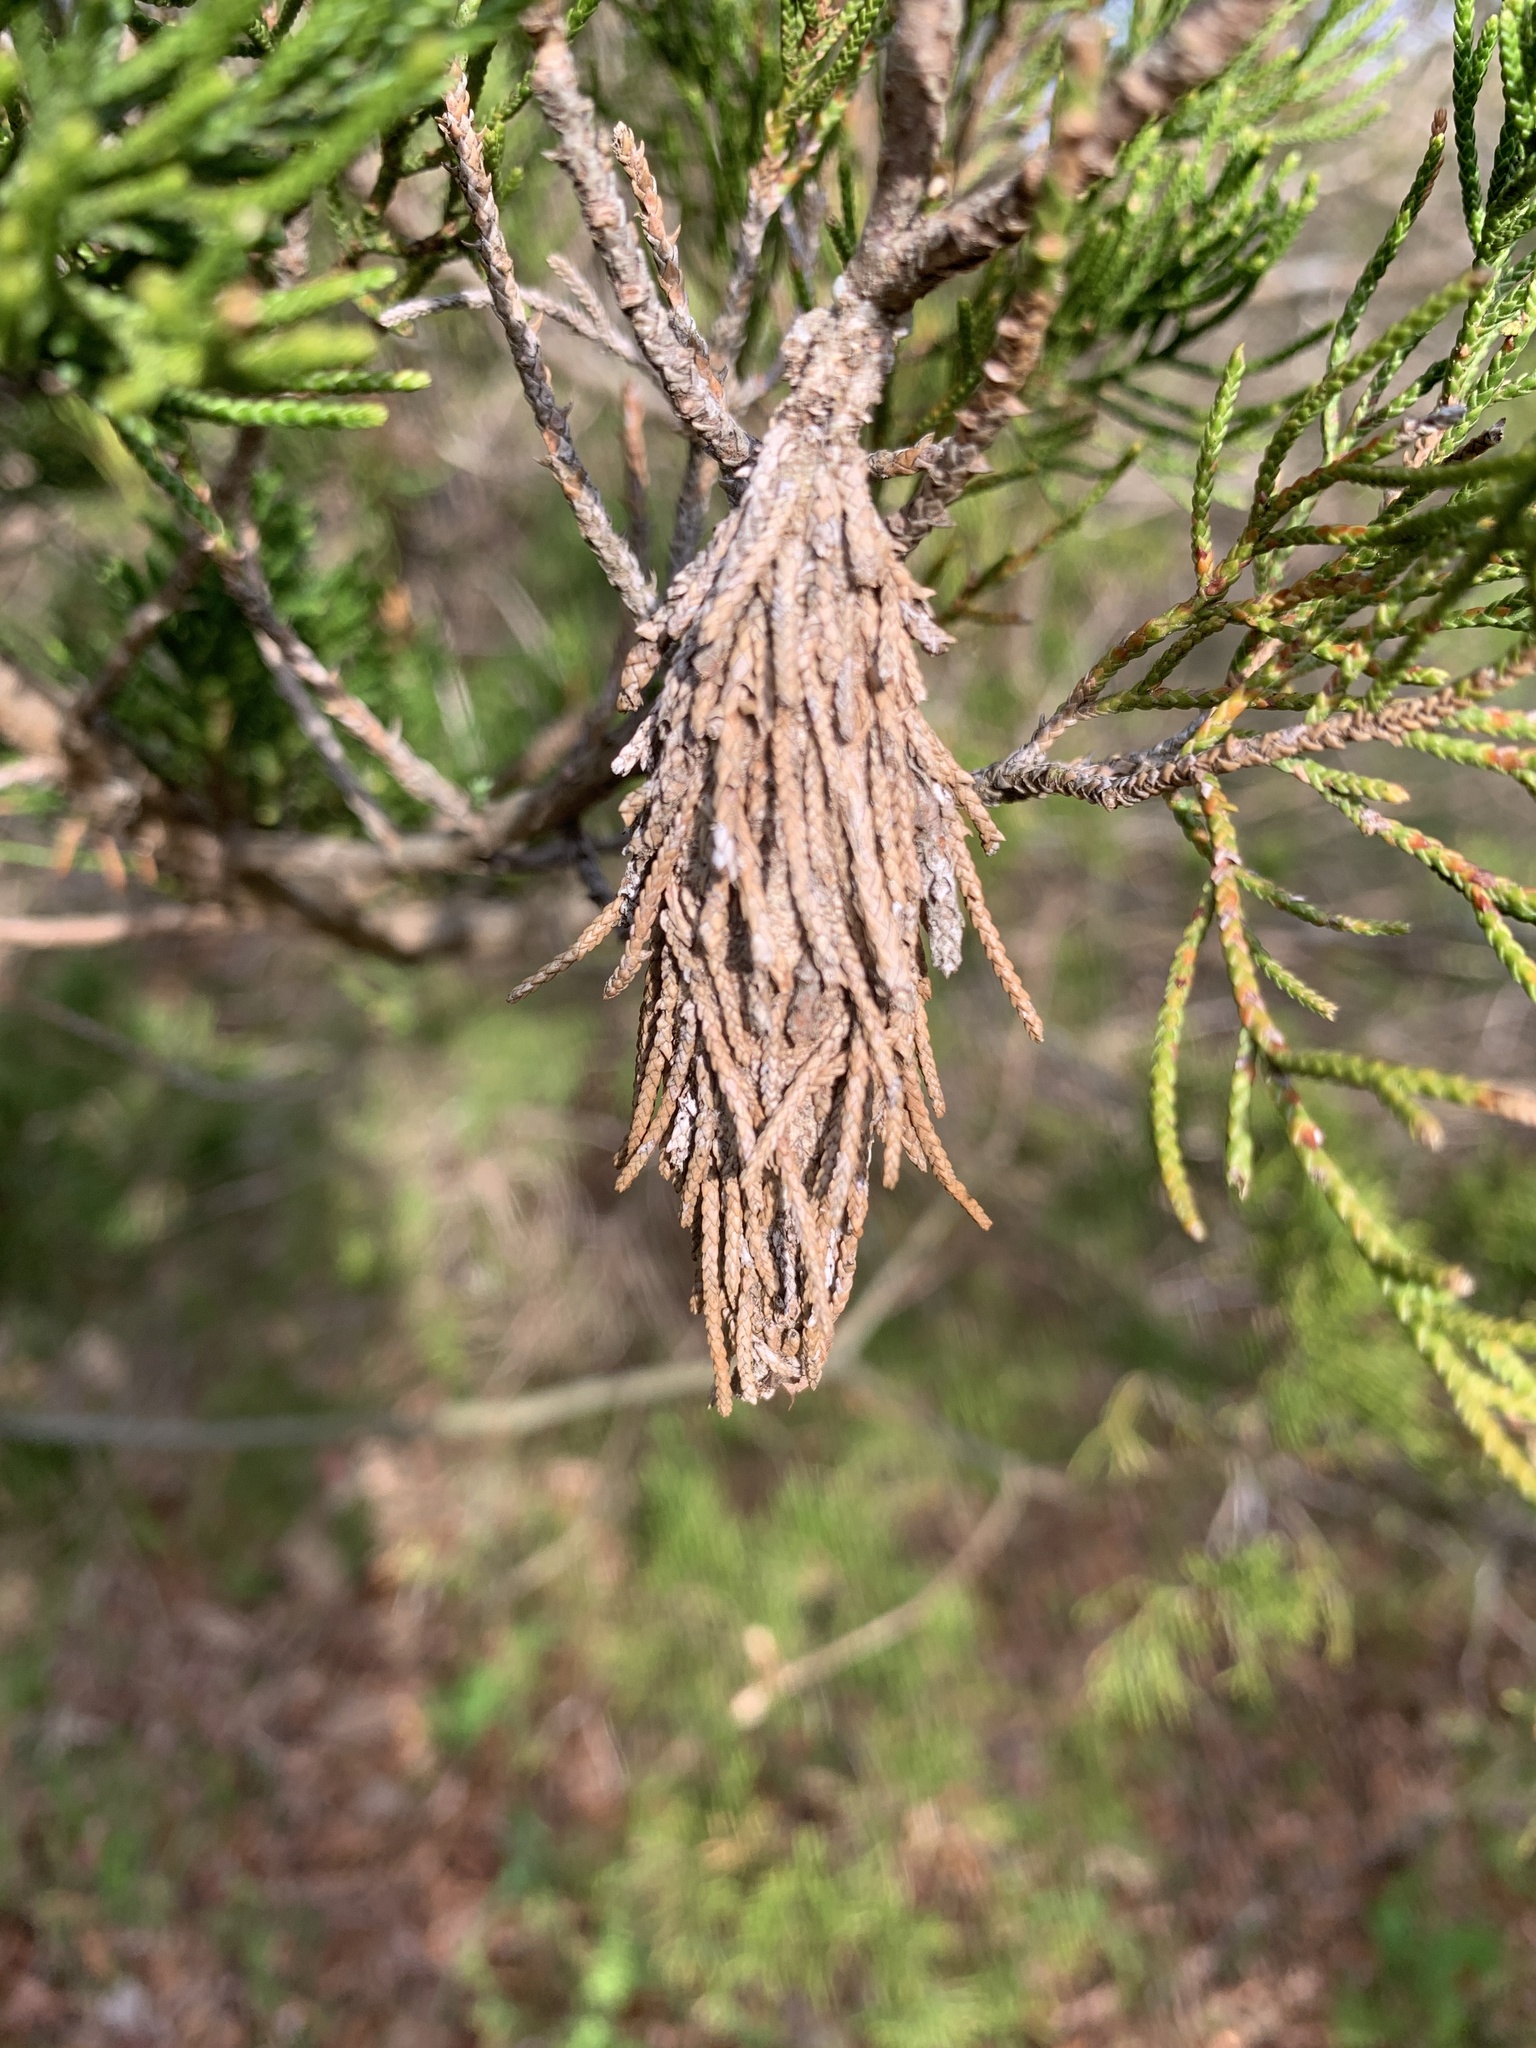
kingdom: Animalia
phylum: Arthropoda
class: Insecta
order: Lepidoptera
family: Psychidae
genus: Thyridopteryx
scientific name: Thyridopteryx ephemeraeformis
